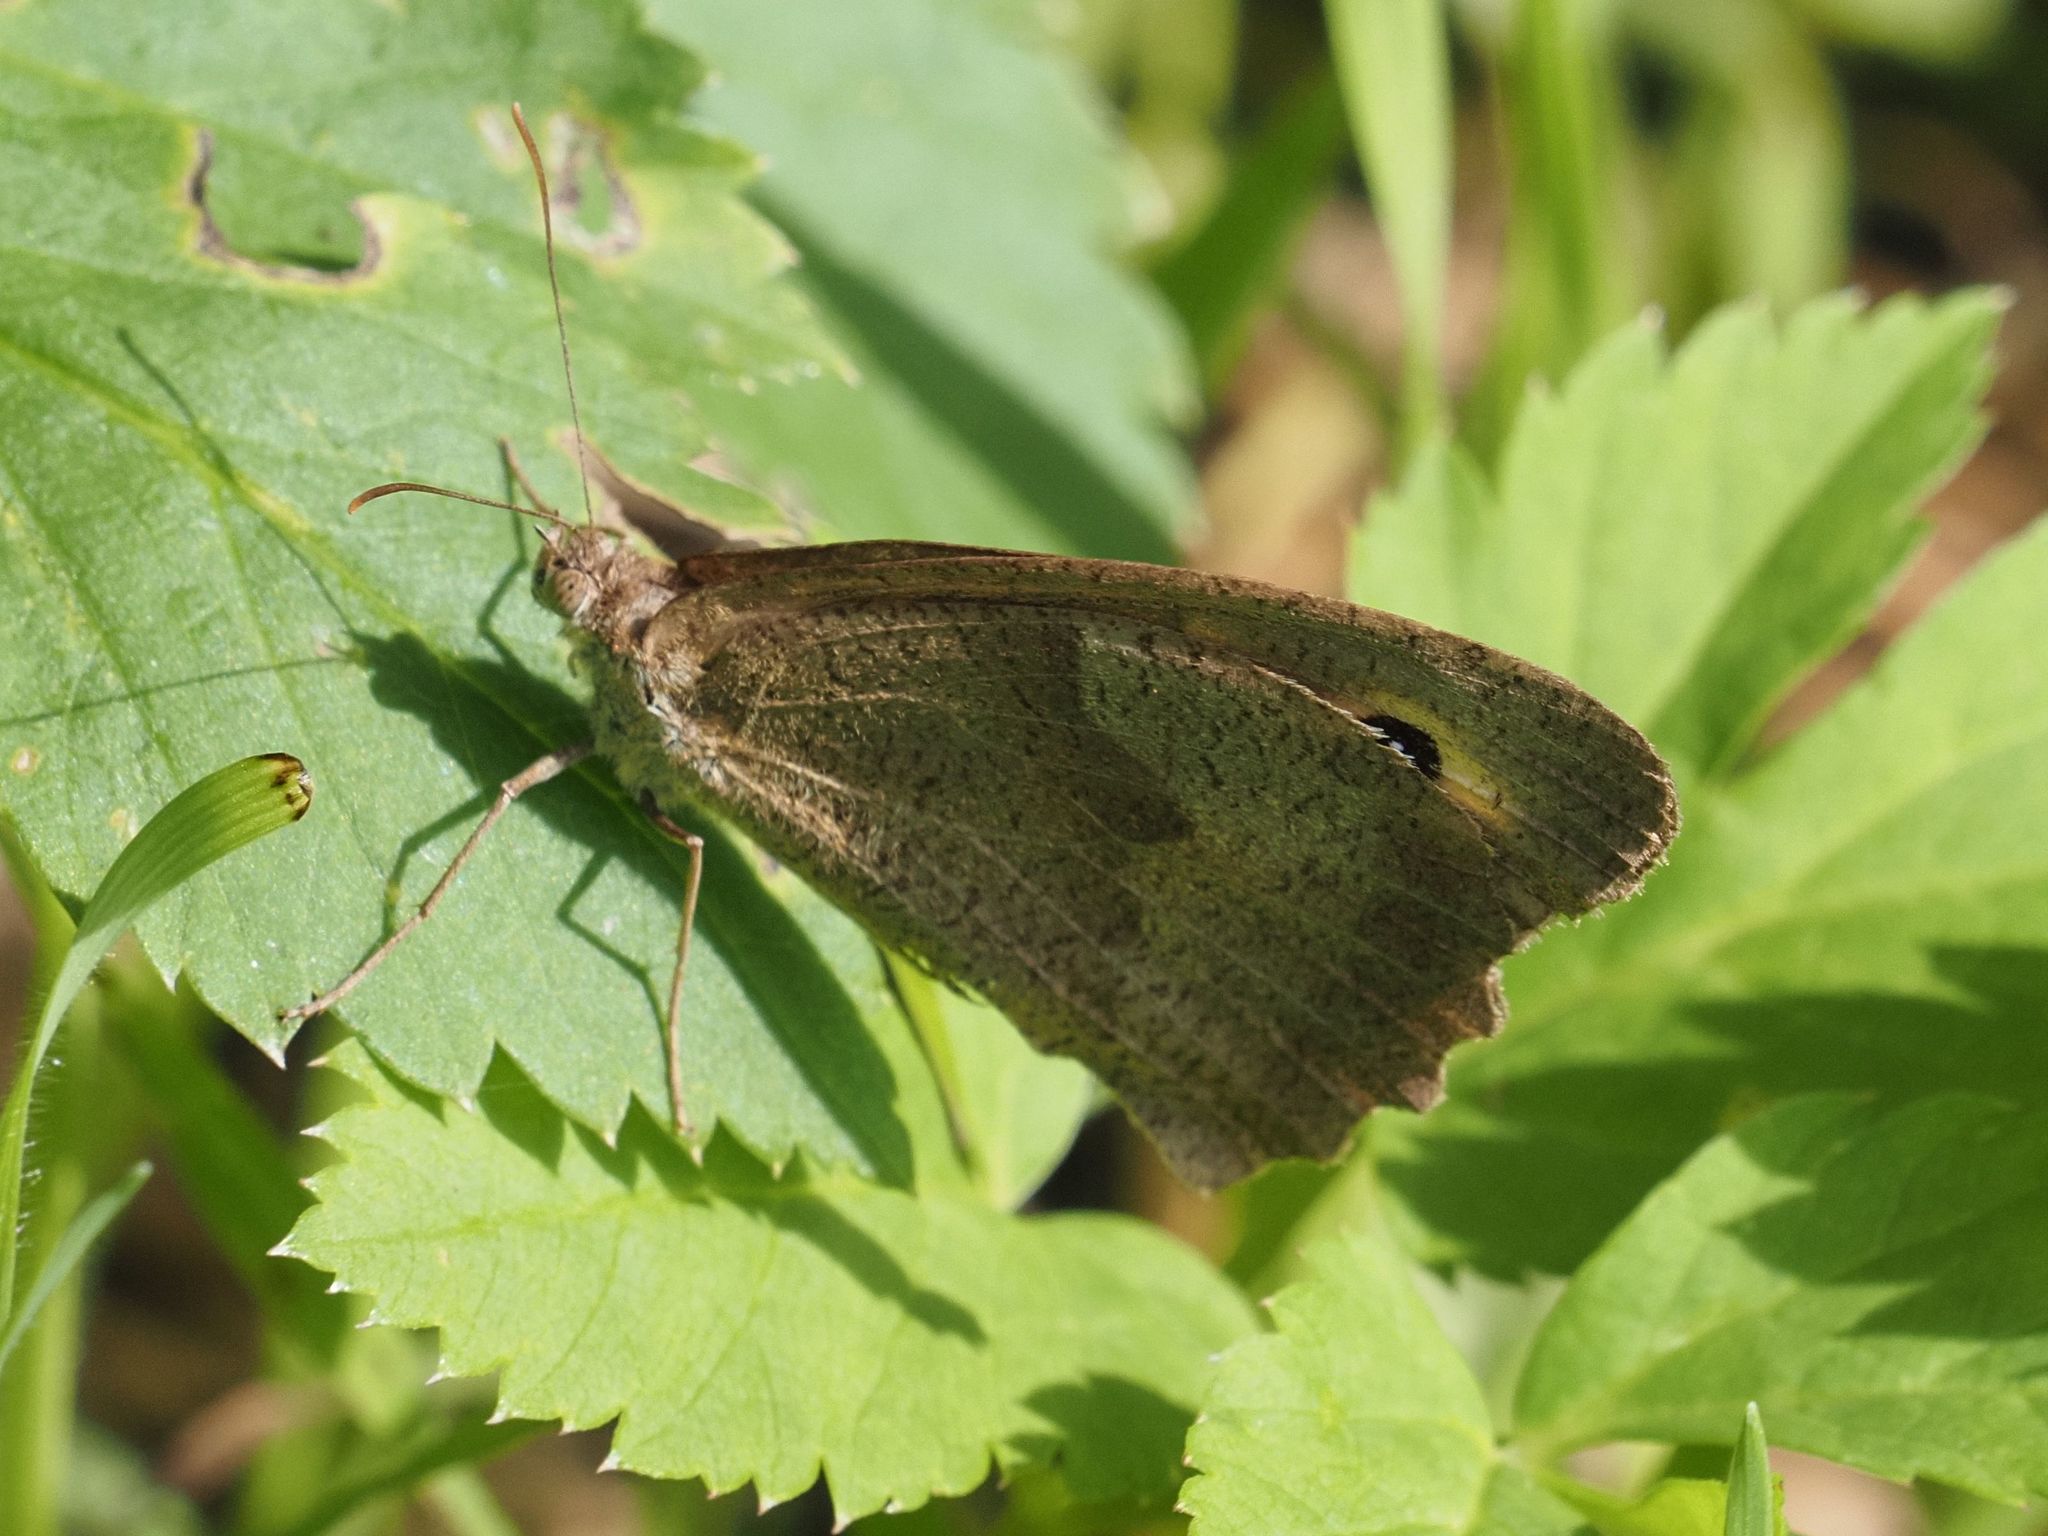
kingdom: Animalia
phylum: Arthropoda
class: Insecta
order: Lepidoptera
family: Nymphalidae
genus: Maniola
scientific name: Maniola jurtina
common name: Meadow brown
